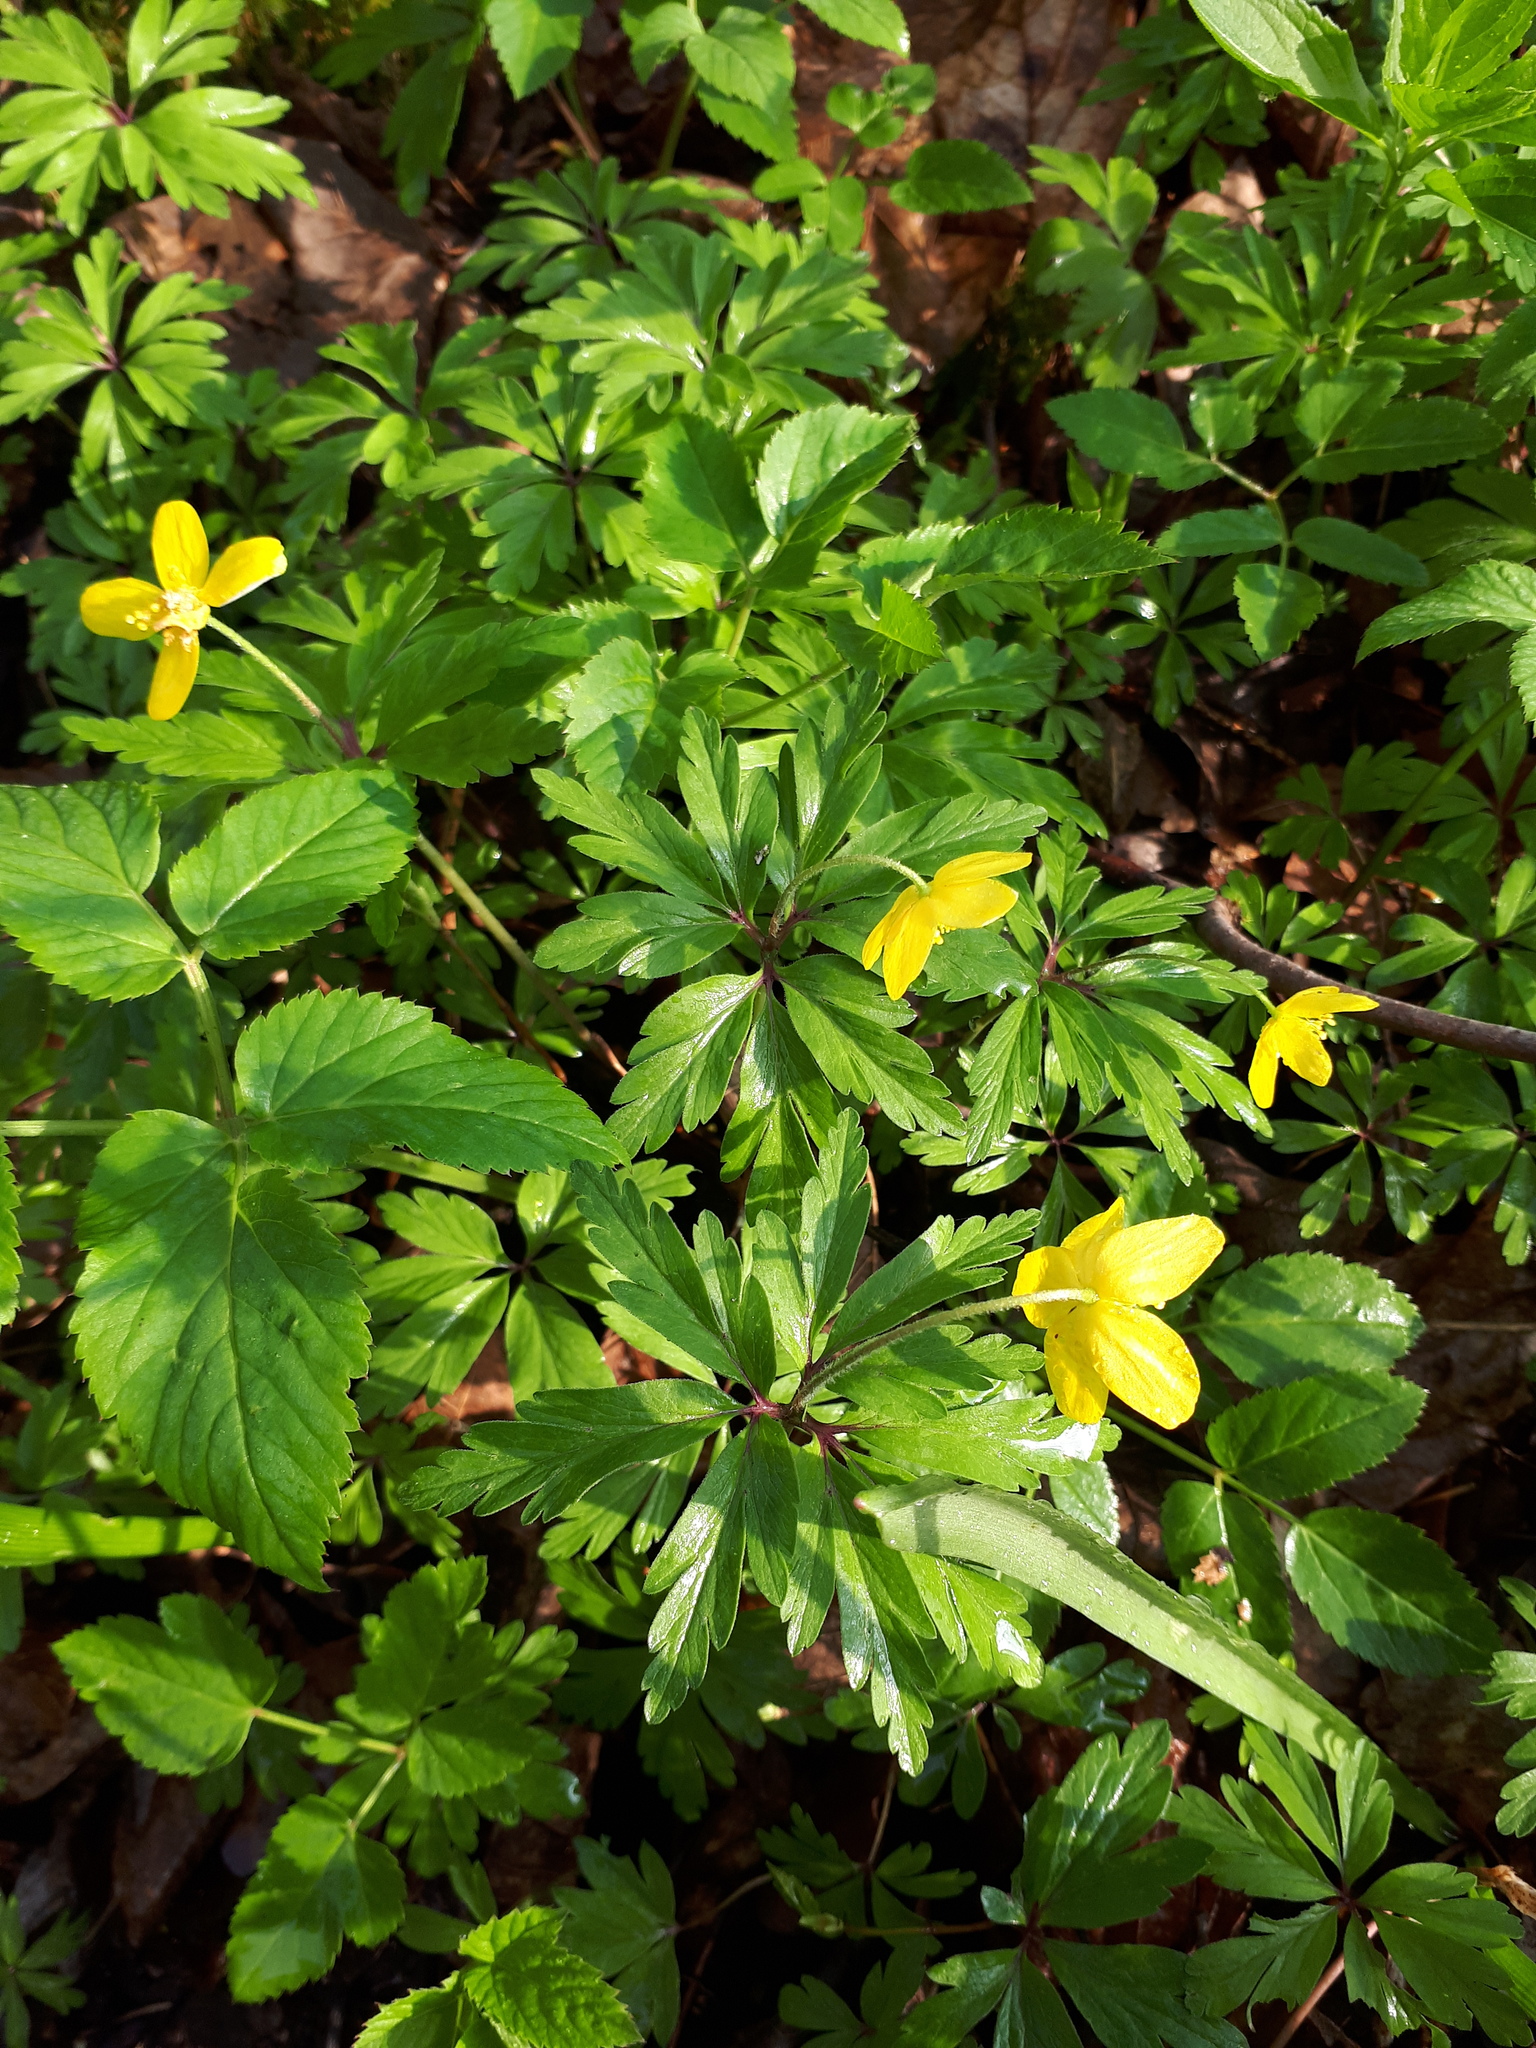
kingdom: Plantae
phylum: Tracheophyta
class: Magnoliopsida
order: Ranunculales
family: Ranunculaceae
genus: Anemone
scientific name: Anemone ranunculoides
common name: Yellow anemone
